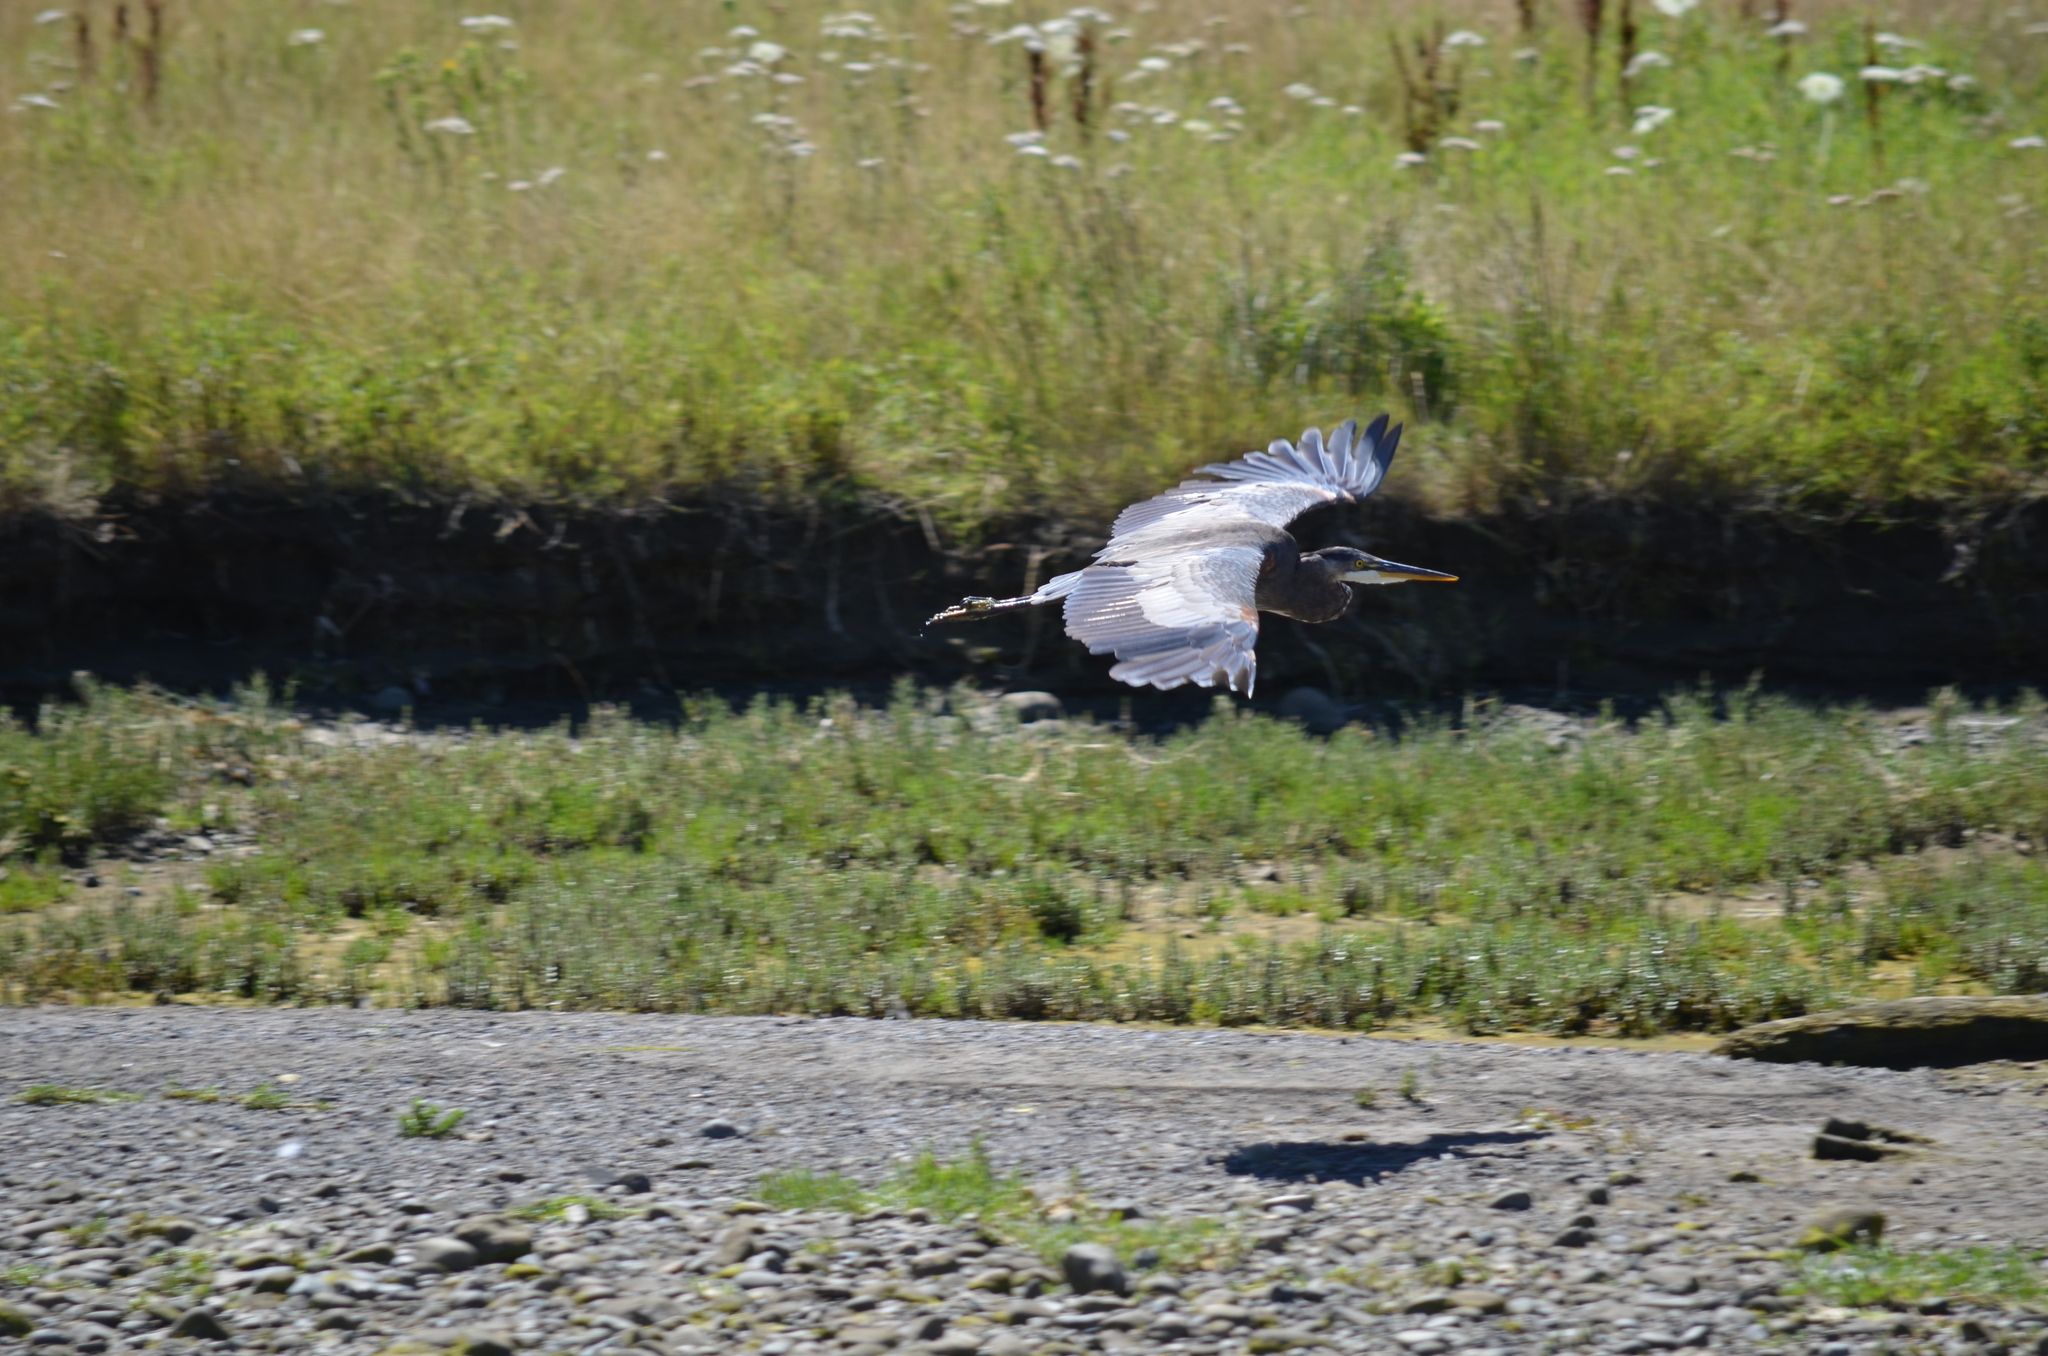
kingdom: Animalia
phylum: Chordata
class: Aves
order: Pelecaniformes
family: Ardeidae
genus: Ardea
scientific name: Ardea herodias
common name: Great blue heron
